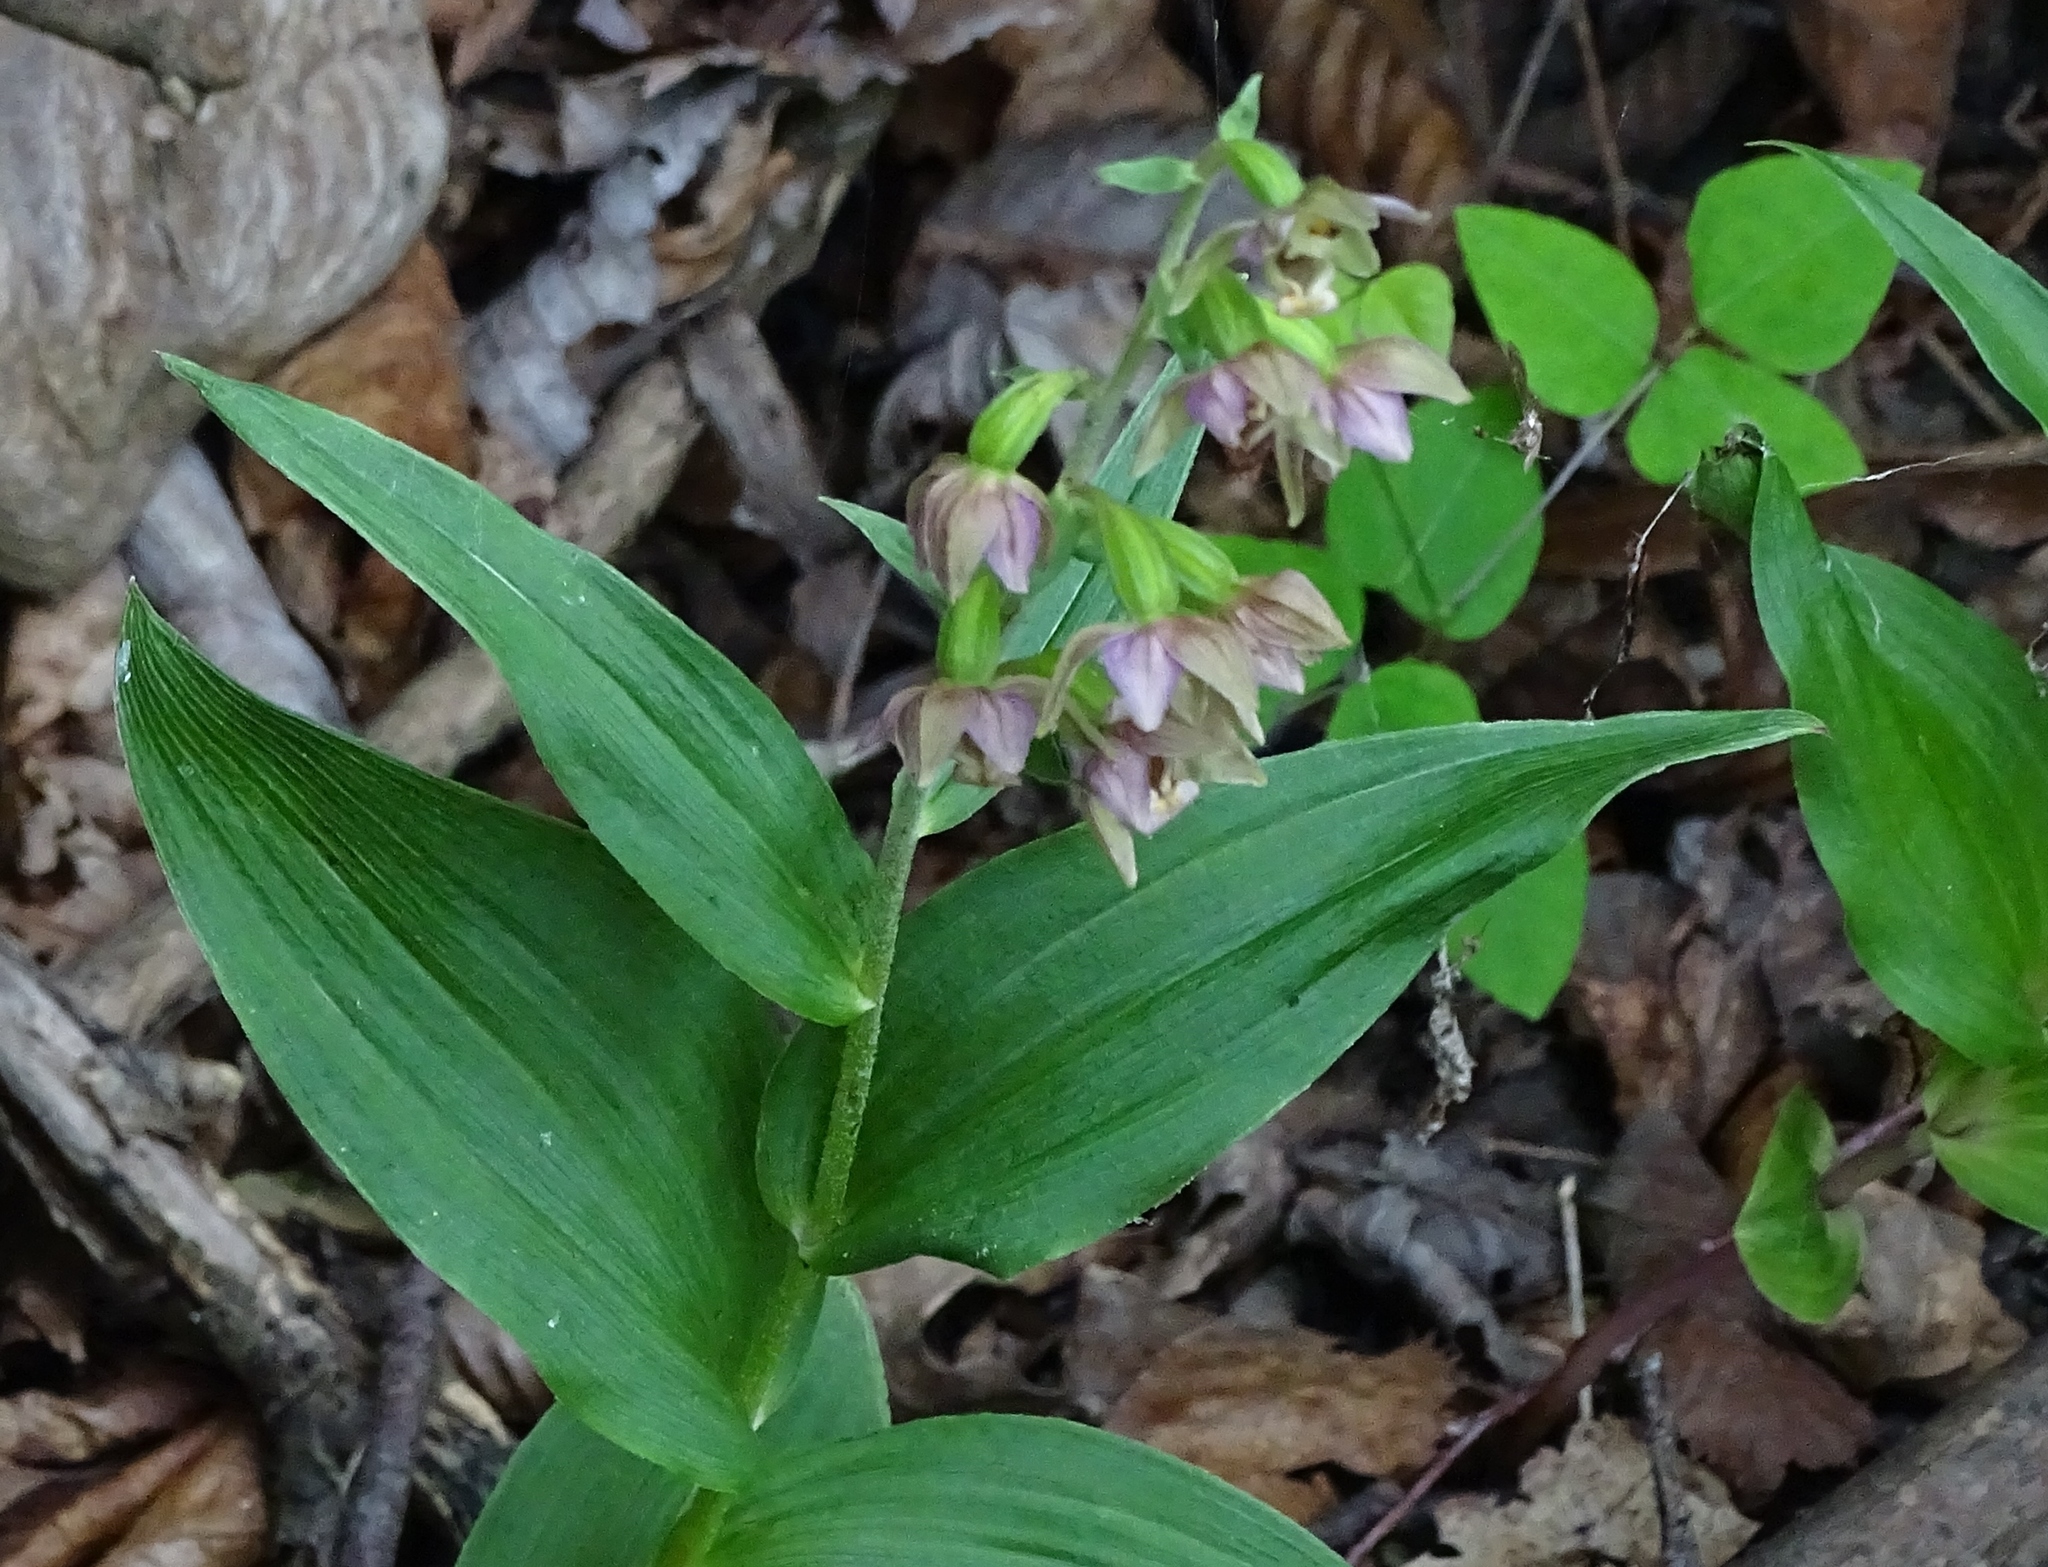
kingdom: Plantae
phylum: Tracheophyta
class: Liliopsida
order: Asparagales
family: Orchidaceae
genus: Epipactis
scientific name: Epipactis helleborine
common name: Broad-leaved helleborine
